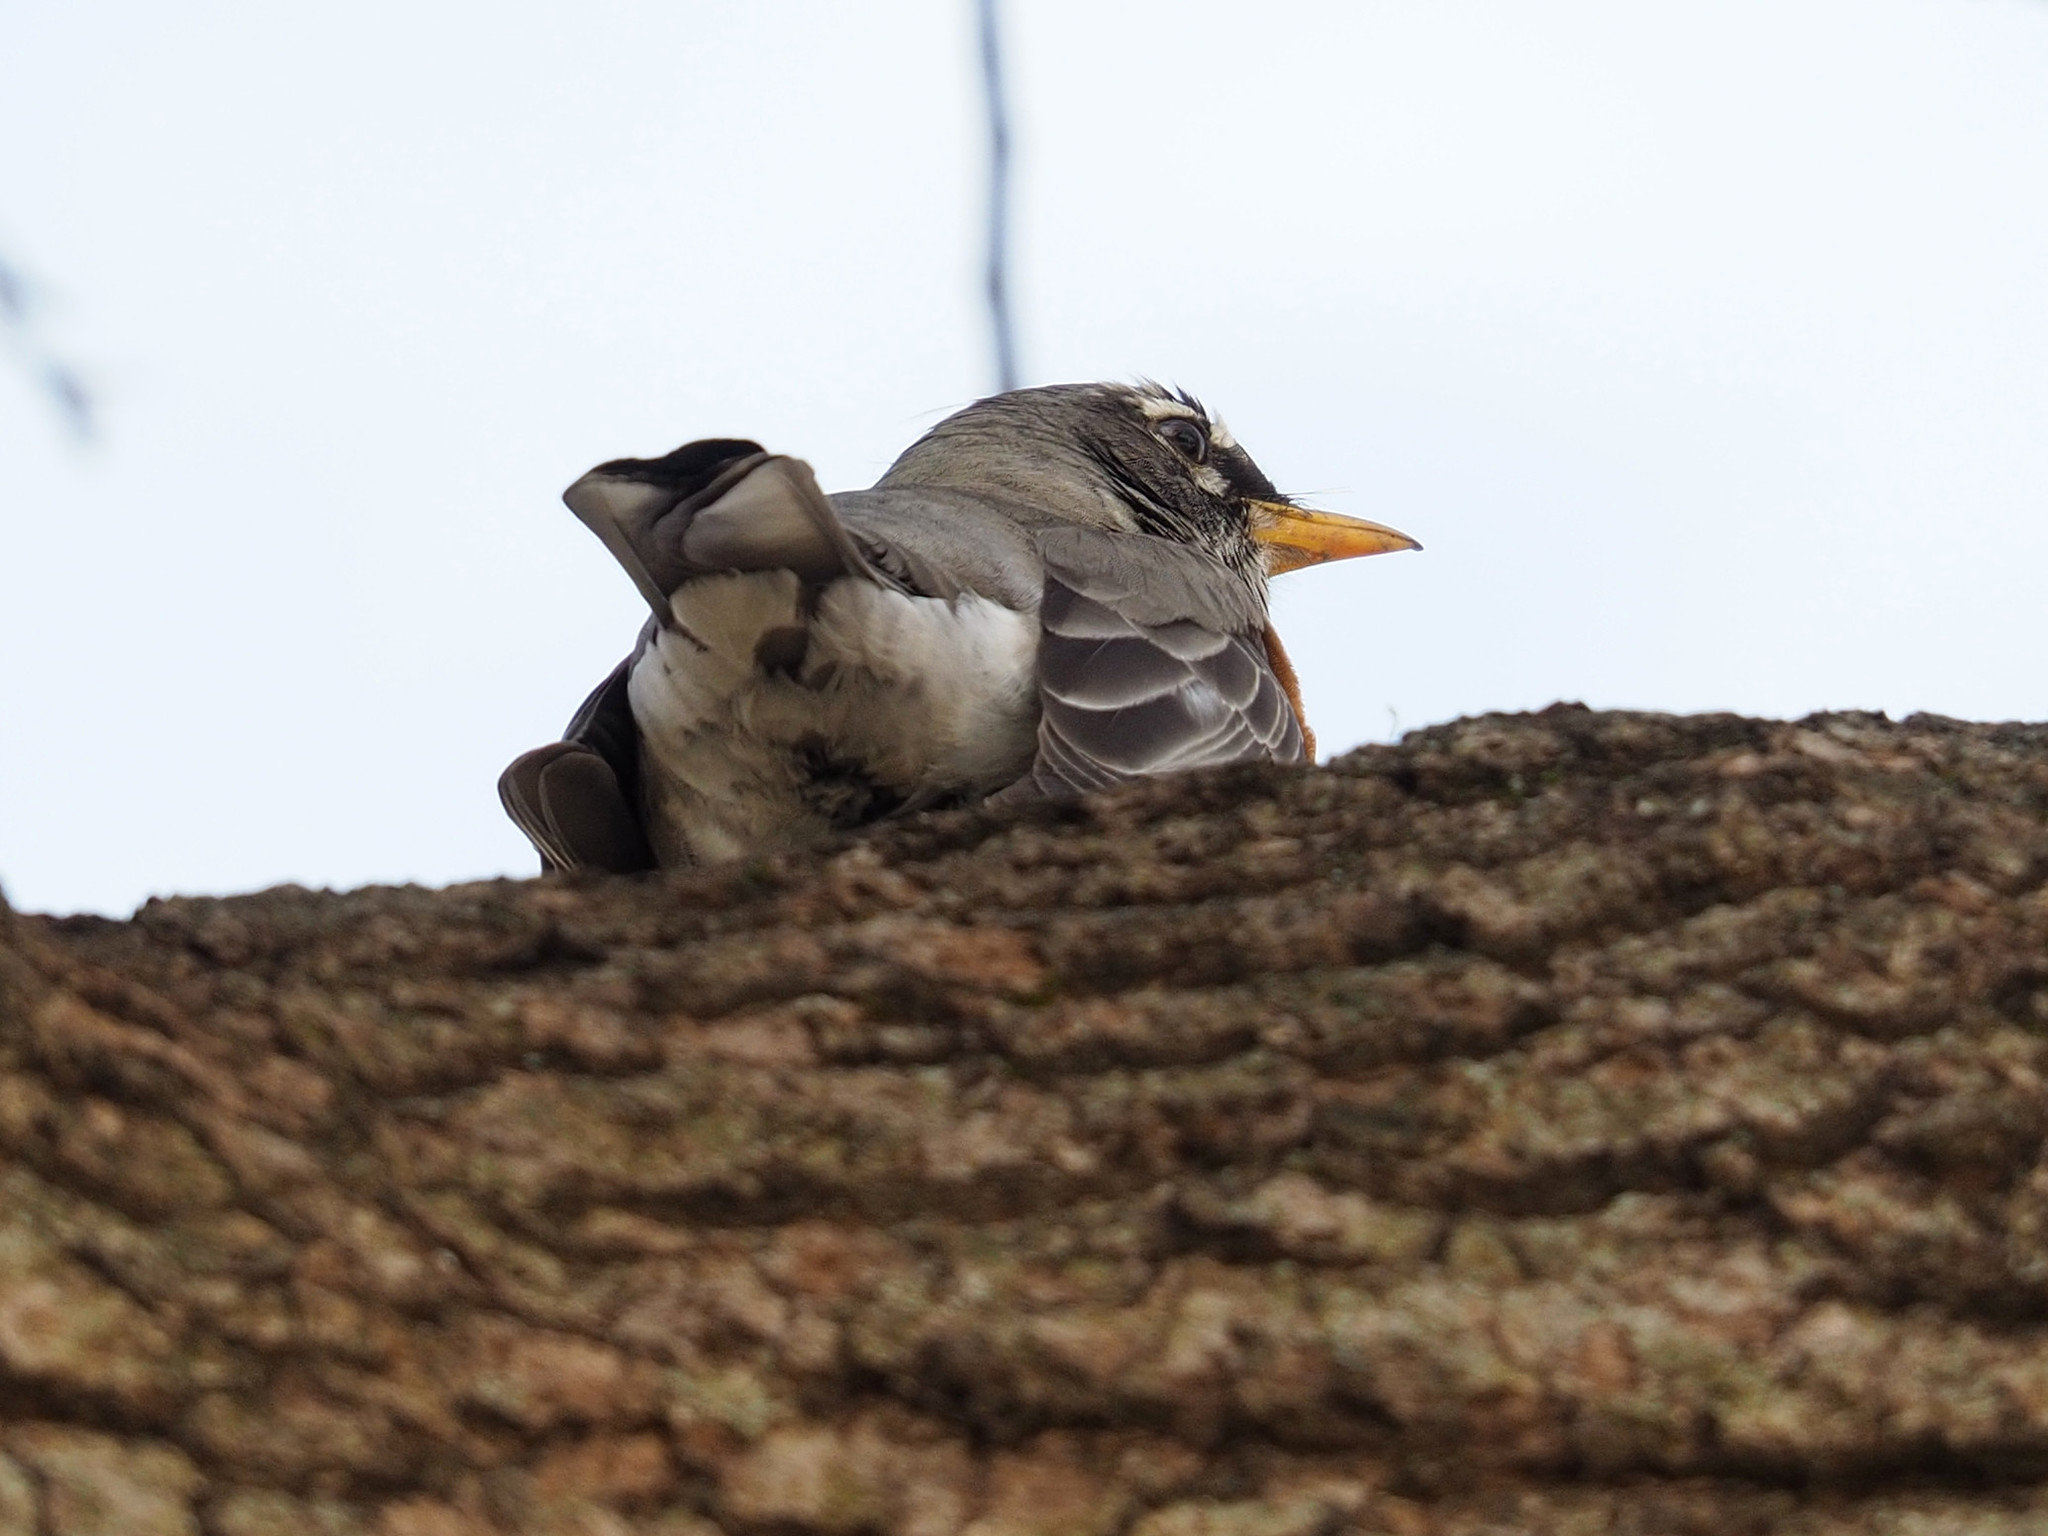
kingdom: Animalia
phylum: Chordata
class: Aves
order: Passeriformes
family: Turdidae
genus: Turdus
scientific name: Turdus migratorius
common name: American robin
